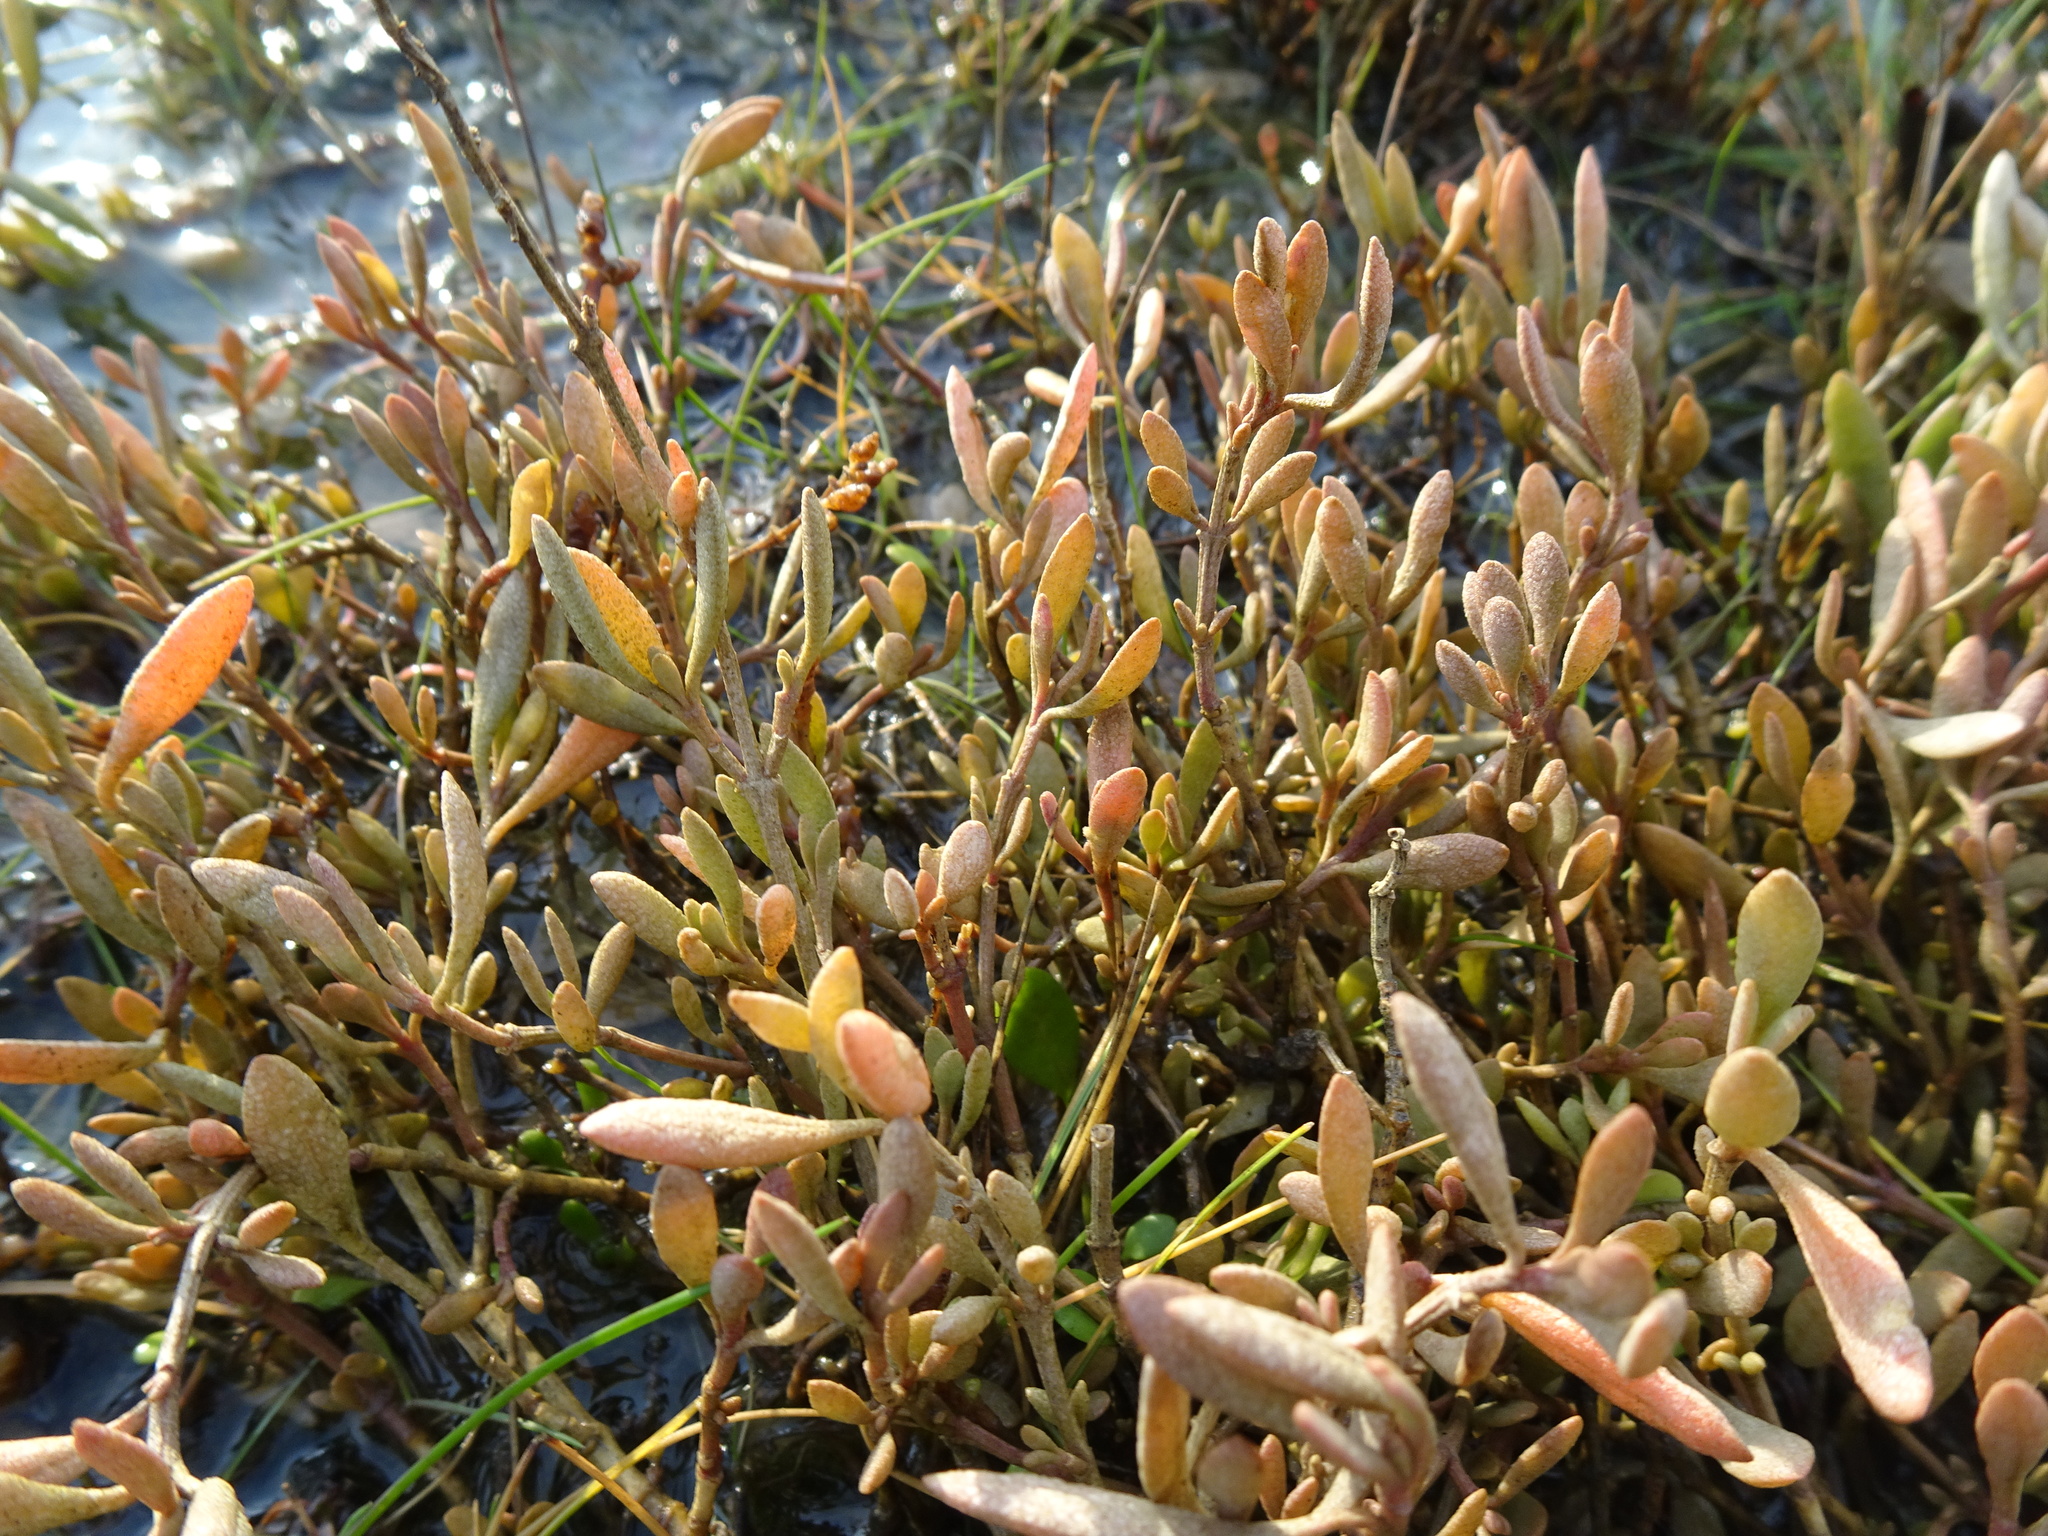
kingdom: Plantae
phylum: Tracheophyta
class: Magnoliopsida
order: Caryophyllales
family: Amaranthaceae
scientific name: Amaranthaceae
